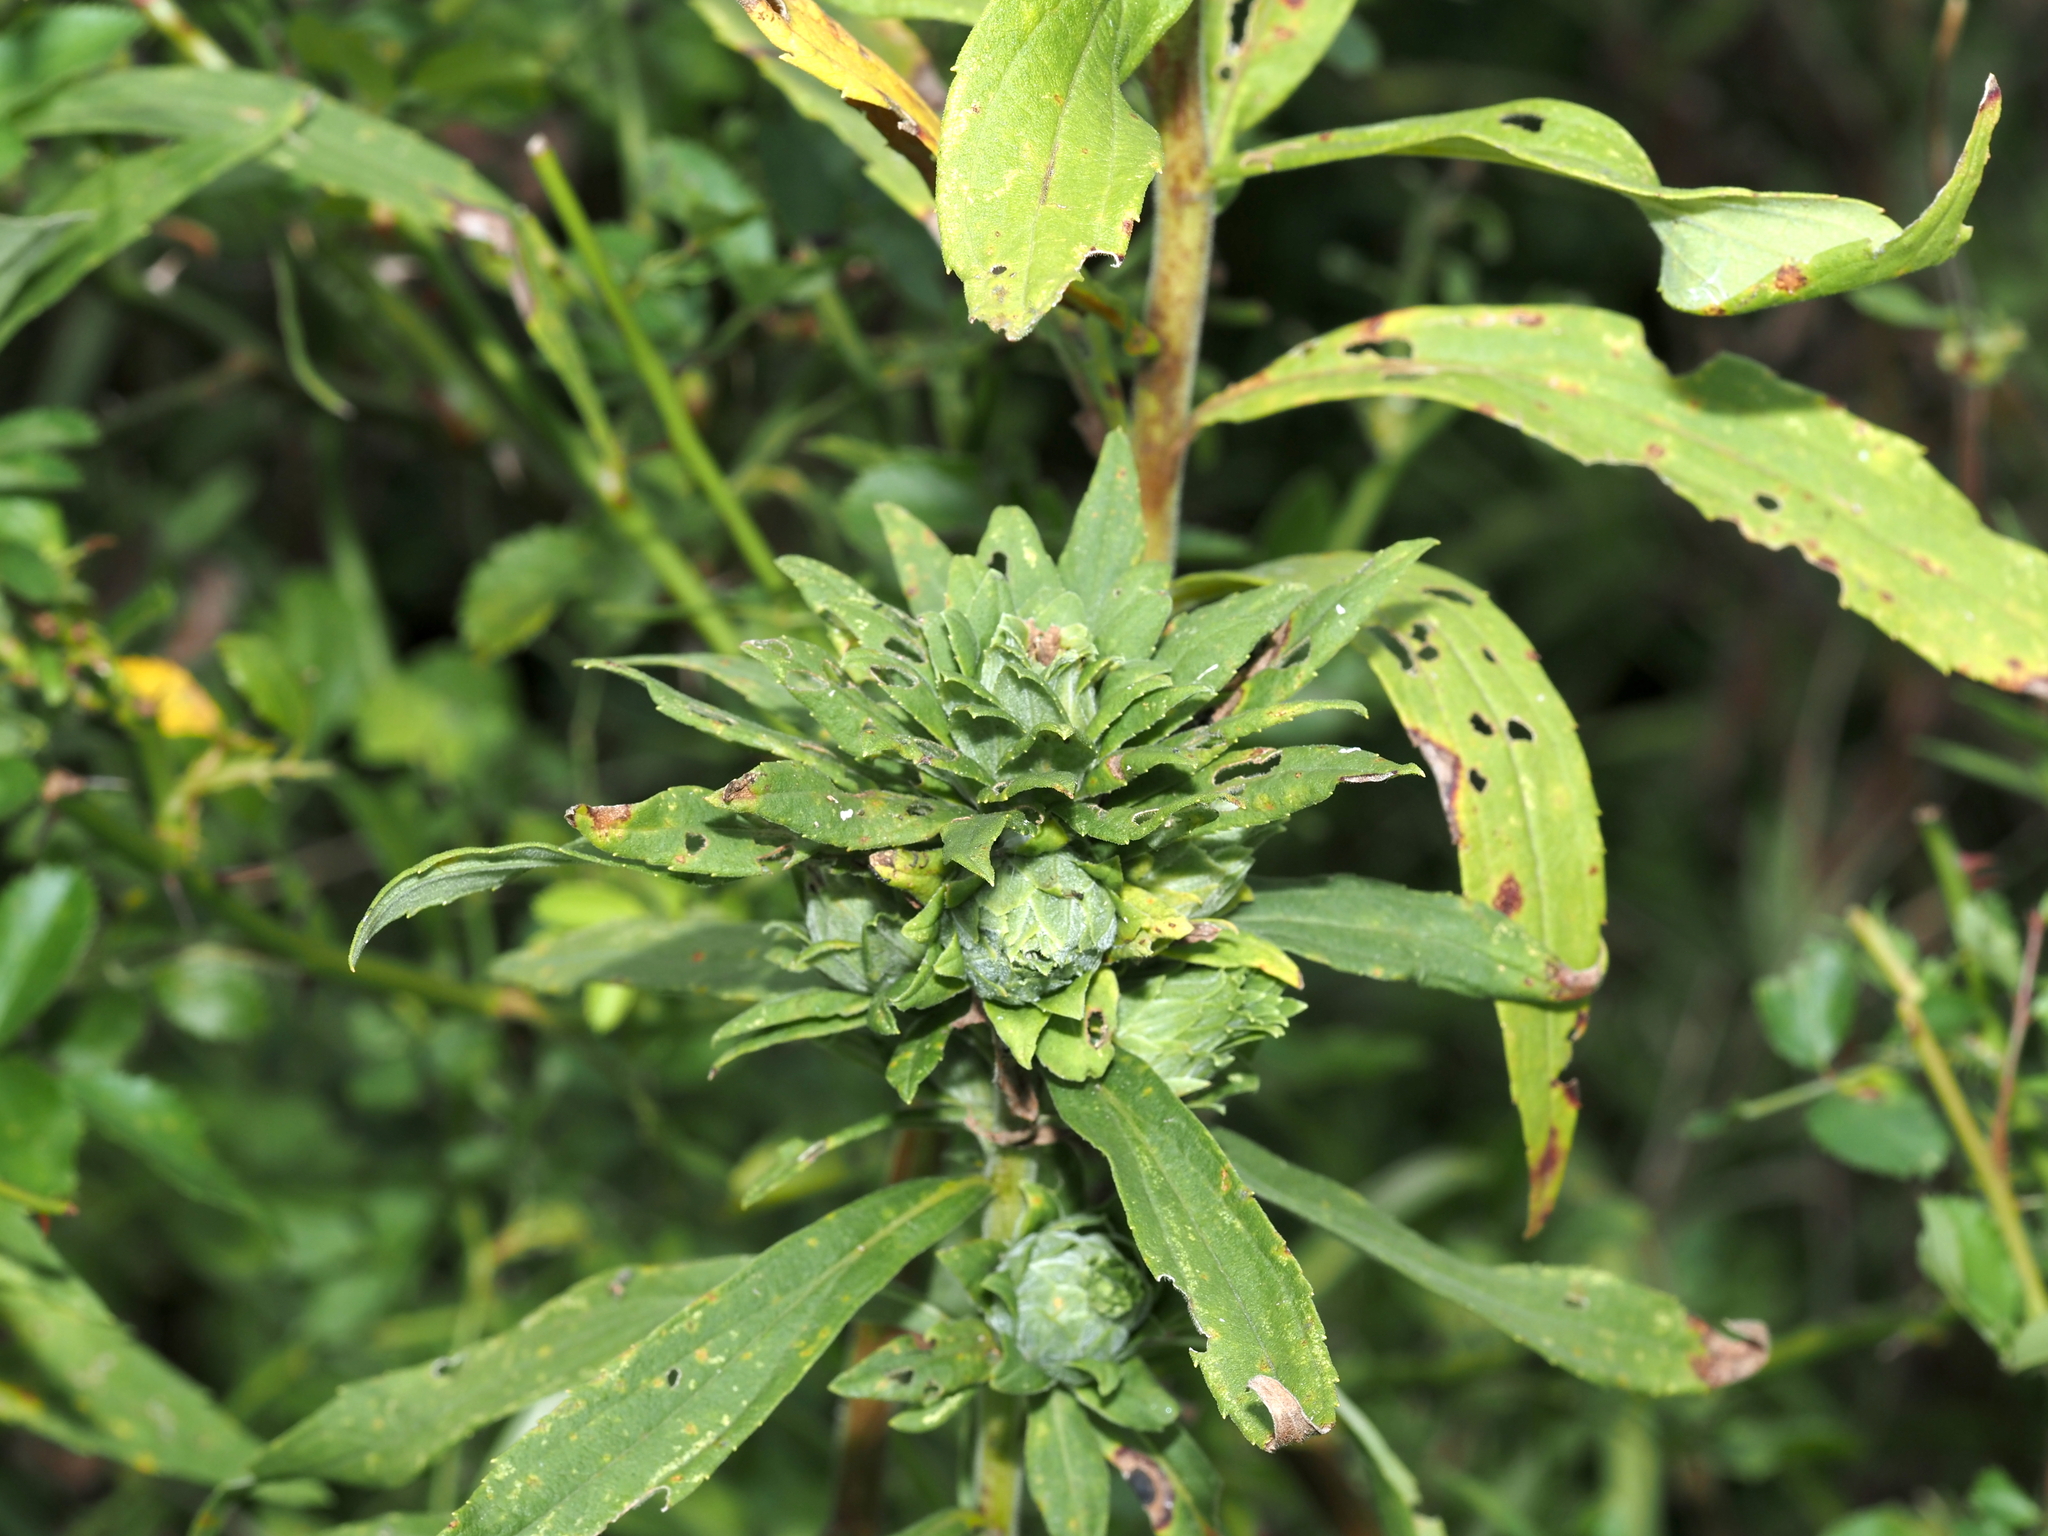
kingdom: Animalia
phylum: Arthropoda
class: Insecta
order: Diptera
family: Tephritidae
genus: Procecidochares
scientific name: Procecidochares atra
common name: Goldenrod brussels sprout gall fly
